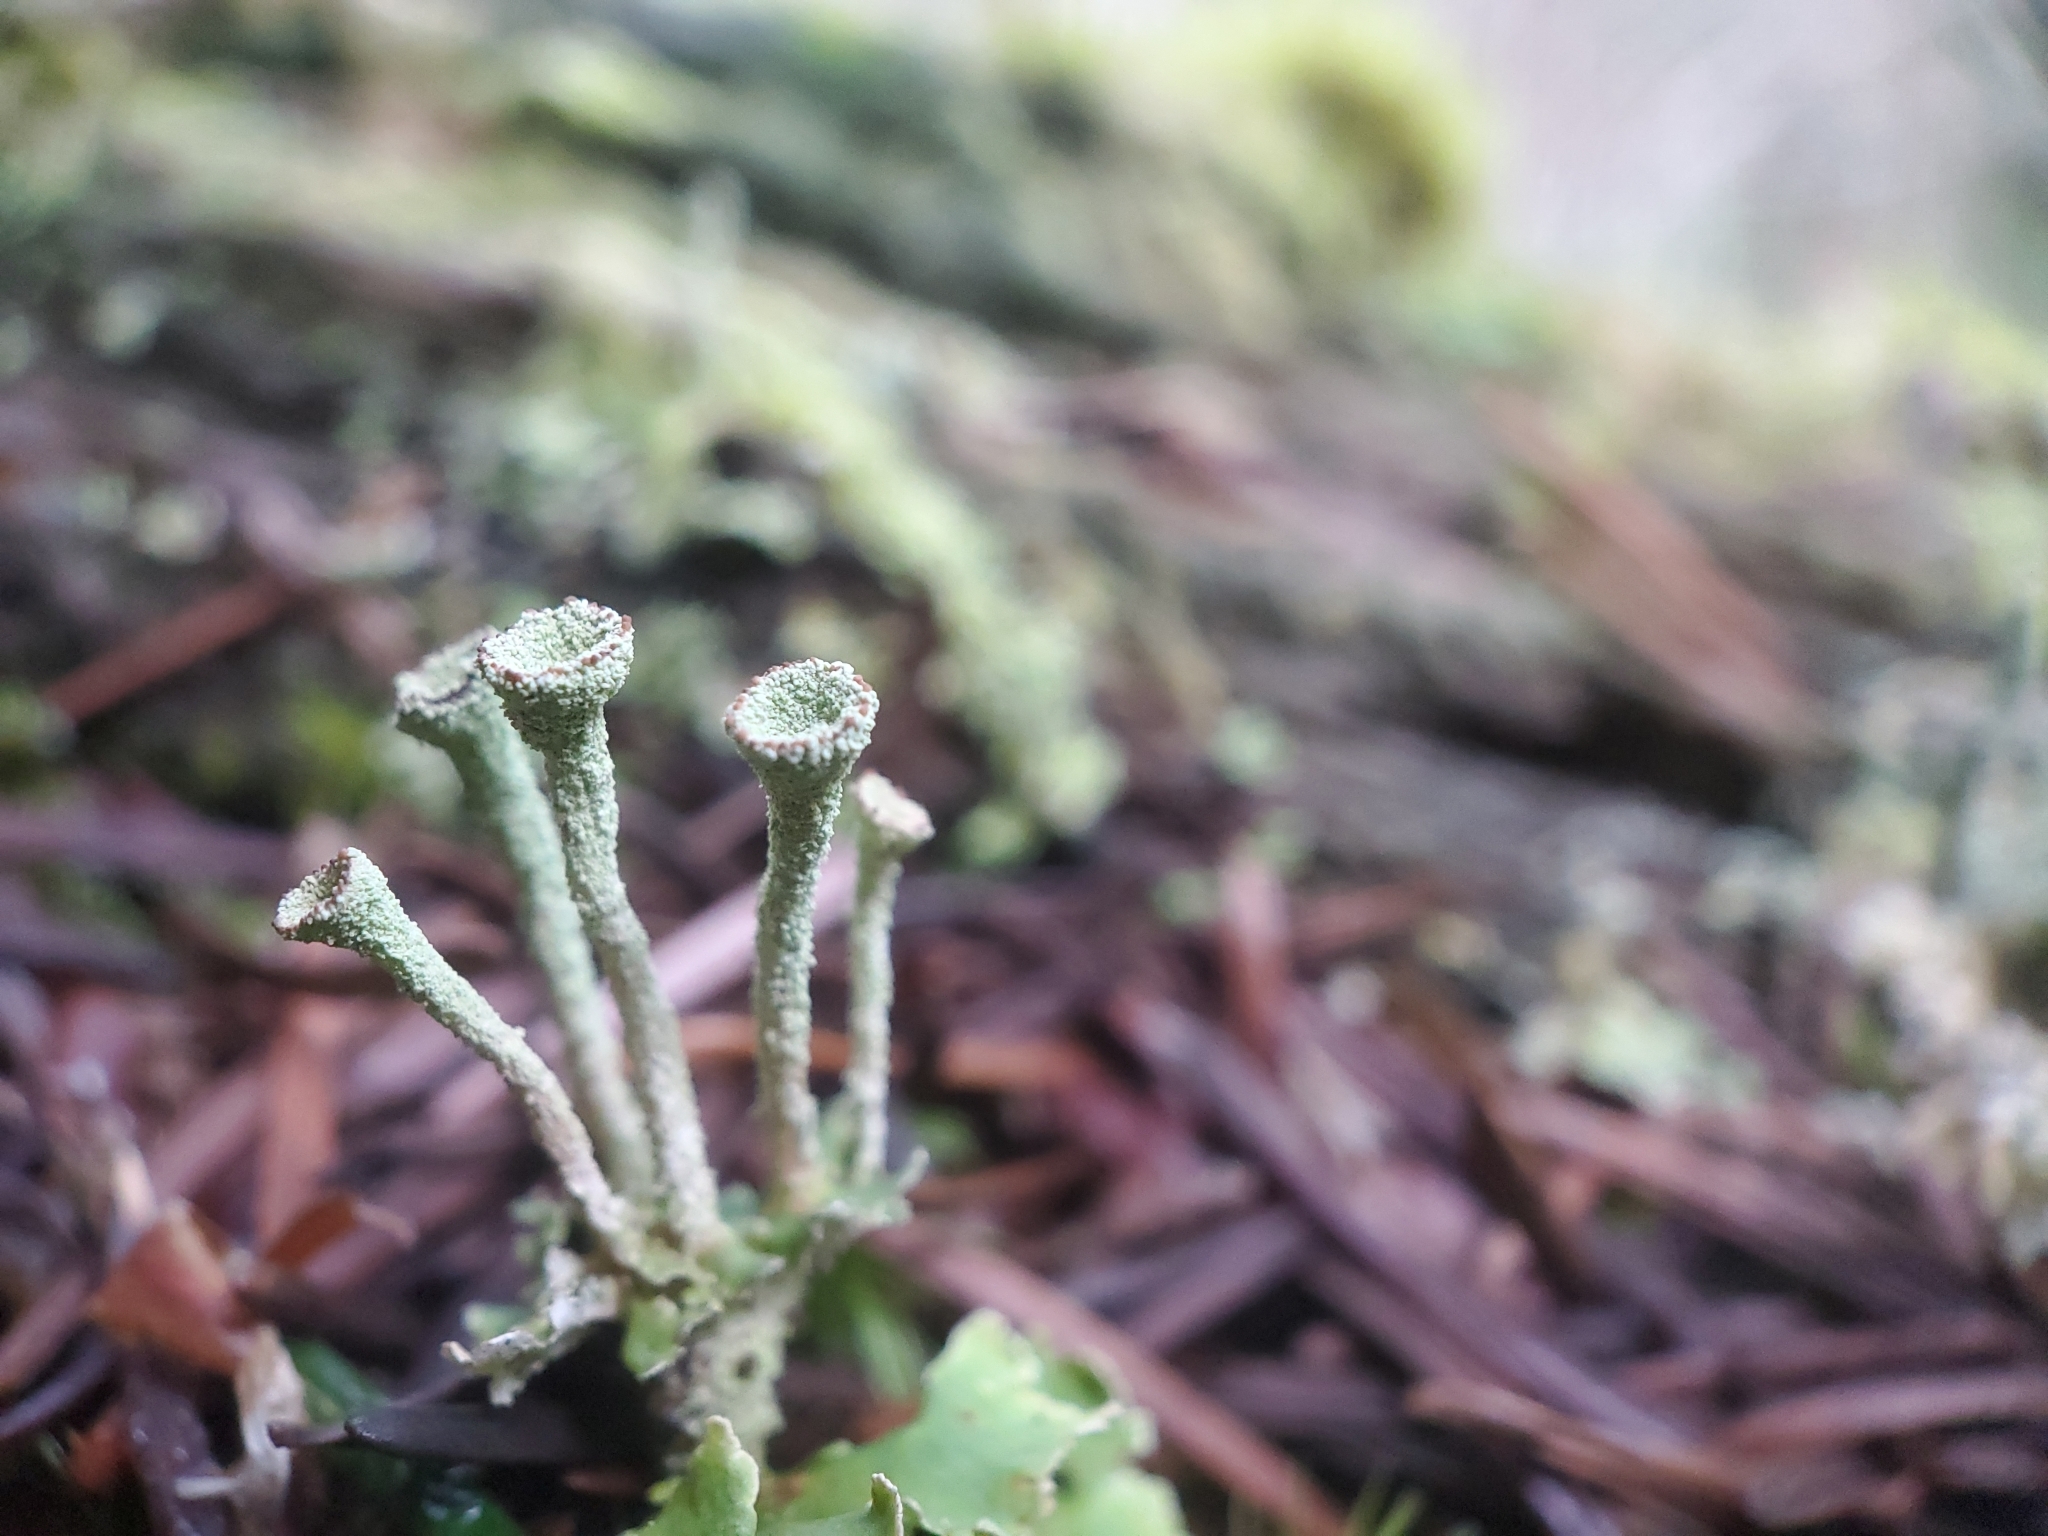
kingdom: Fungi
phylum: Ascomycota
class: Lecanoromycetes
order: Lecanorales
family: Cladoniaceae
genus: Cladonia
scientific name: Cladonia fimbriata
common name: Powdered trumpet lichen
